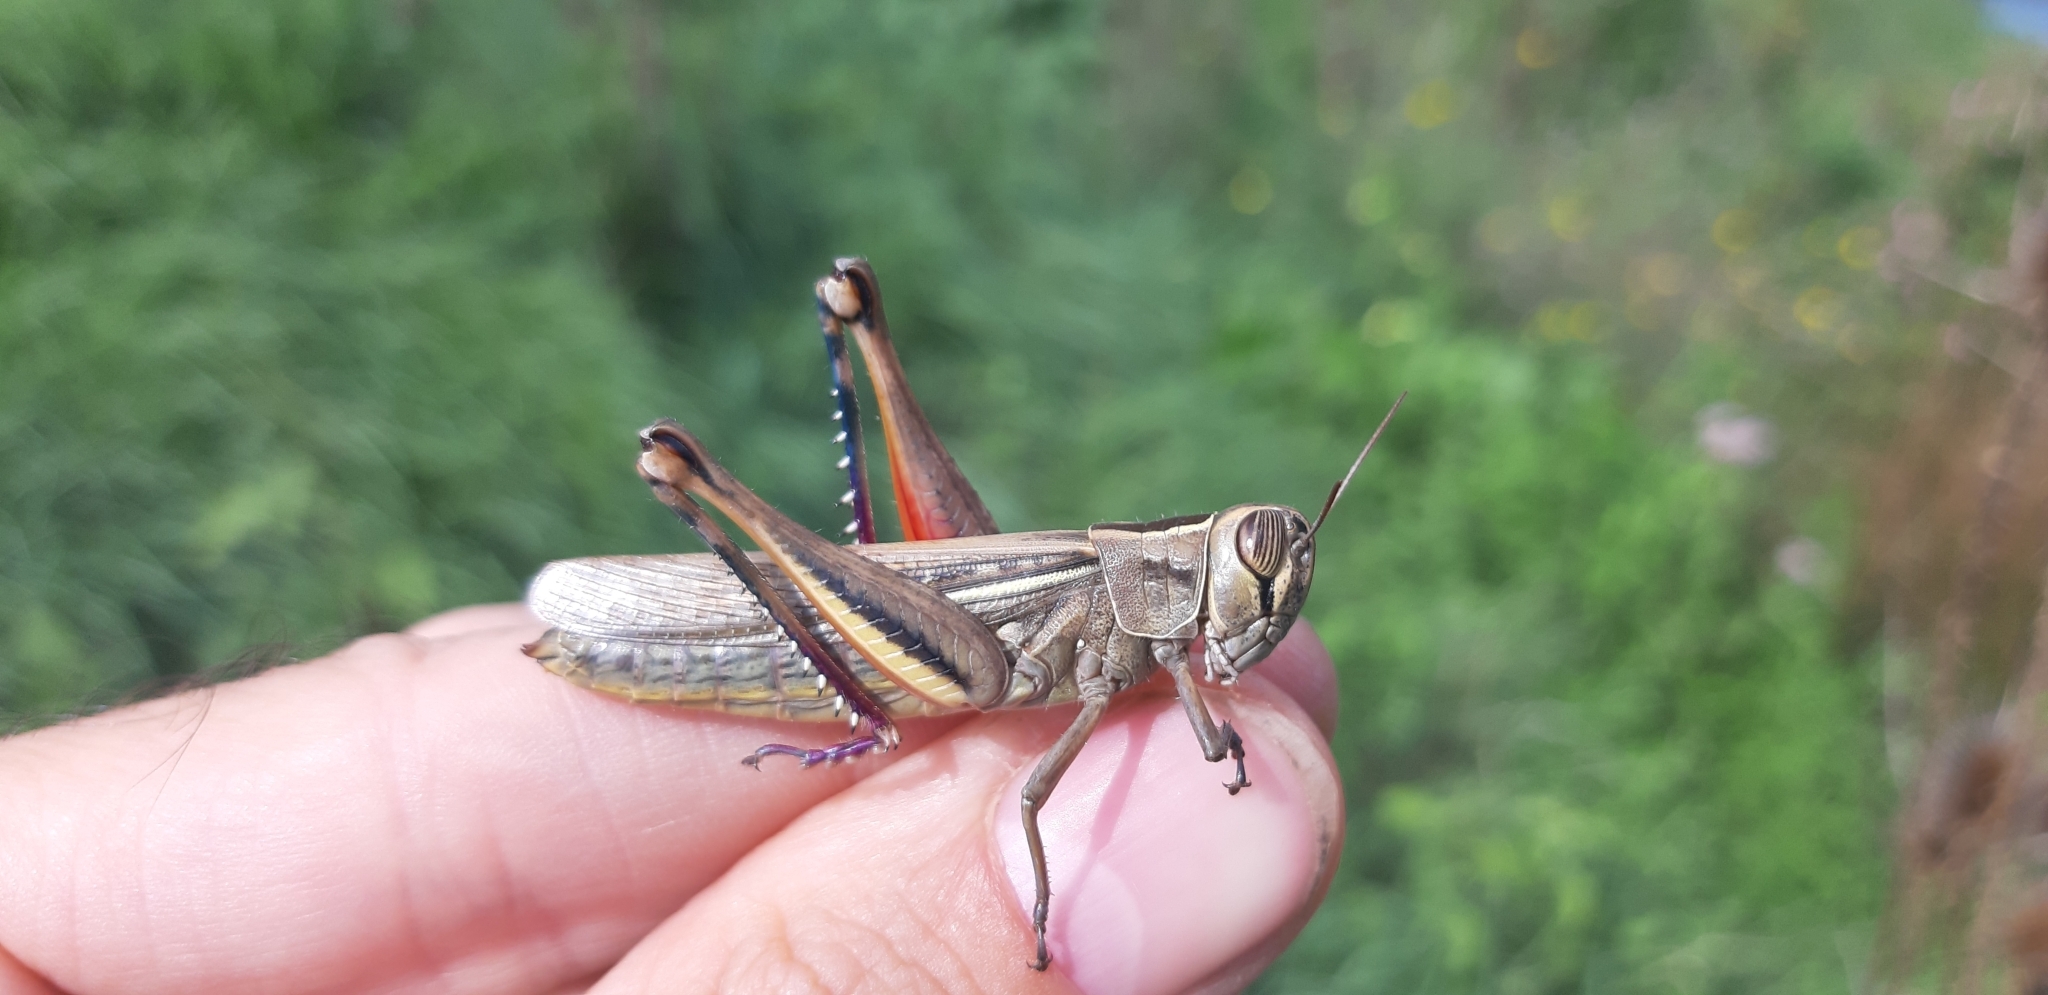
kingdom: Animalia
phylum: Arthropoda
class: Insecta
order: Orthoptera
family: Acrididae
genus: Eyprepocnemis
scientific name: Eyprepocnemis plorans
